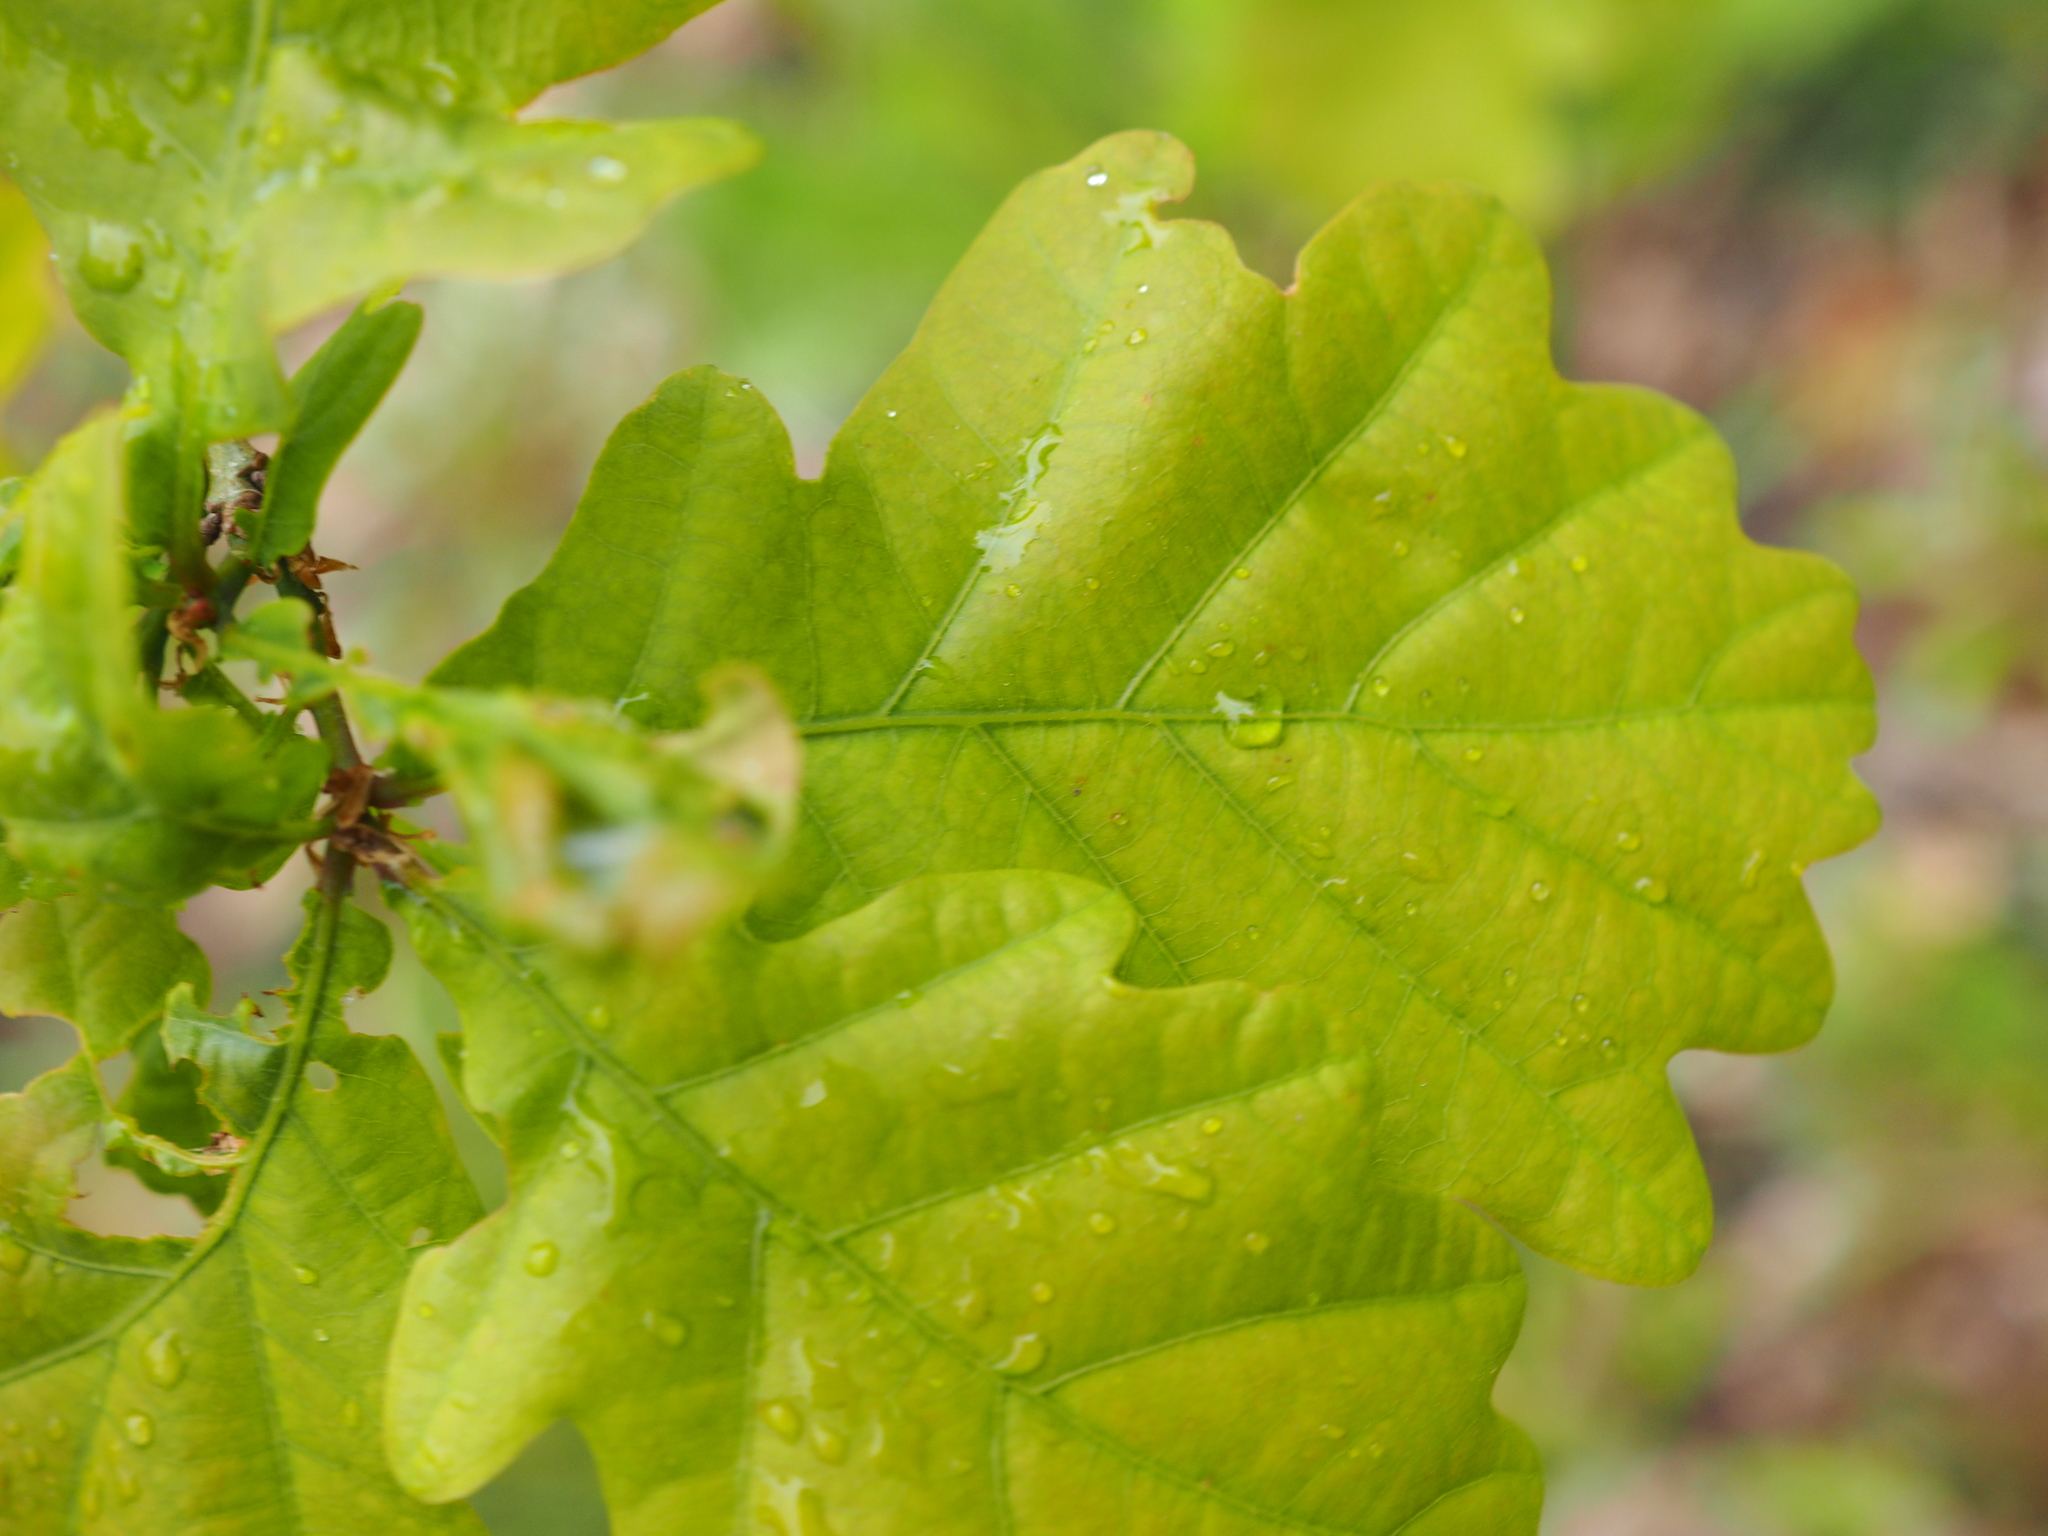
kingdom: Plantae
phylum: Tracheophyta
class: Magnoliopsida
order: Fagales
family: Fagaceae
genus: Quercus
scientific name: Quercus robur
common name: Pedunculate oak
